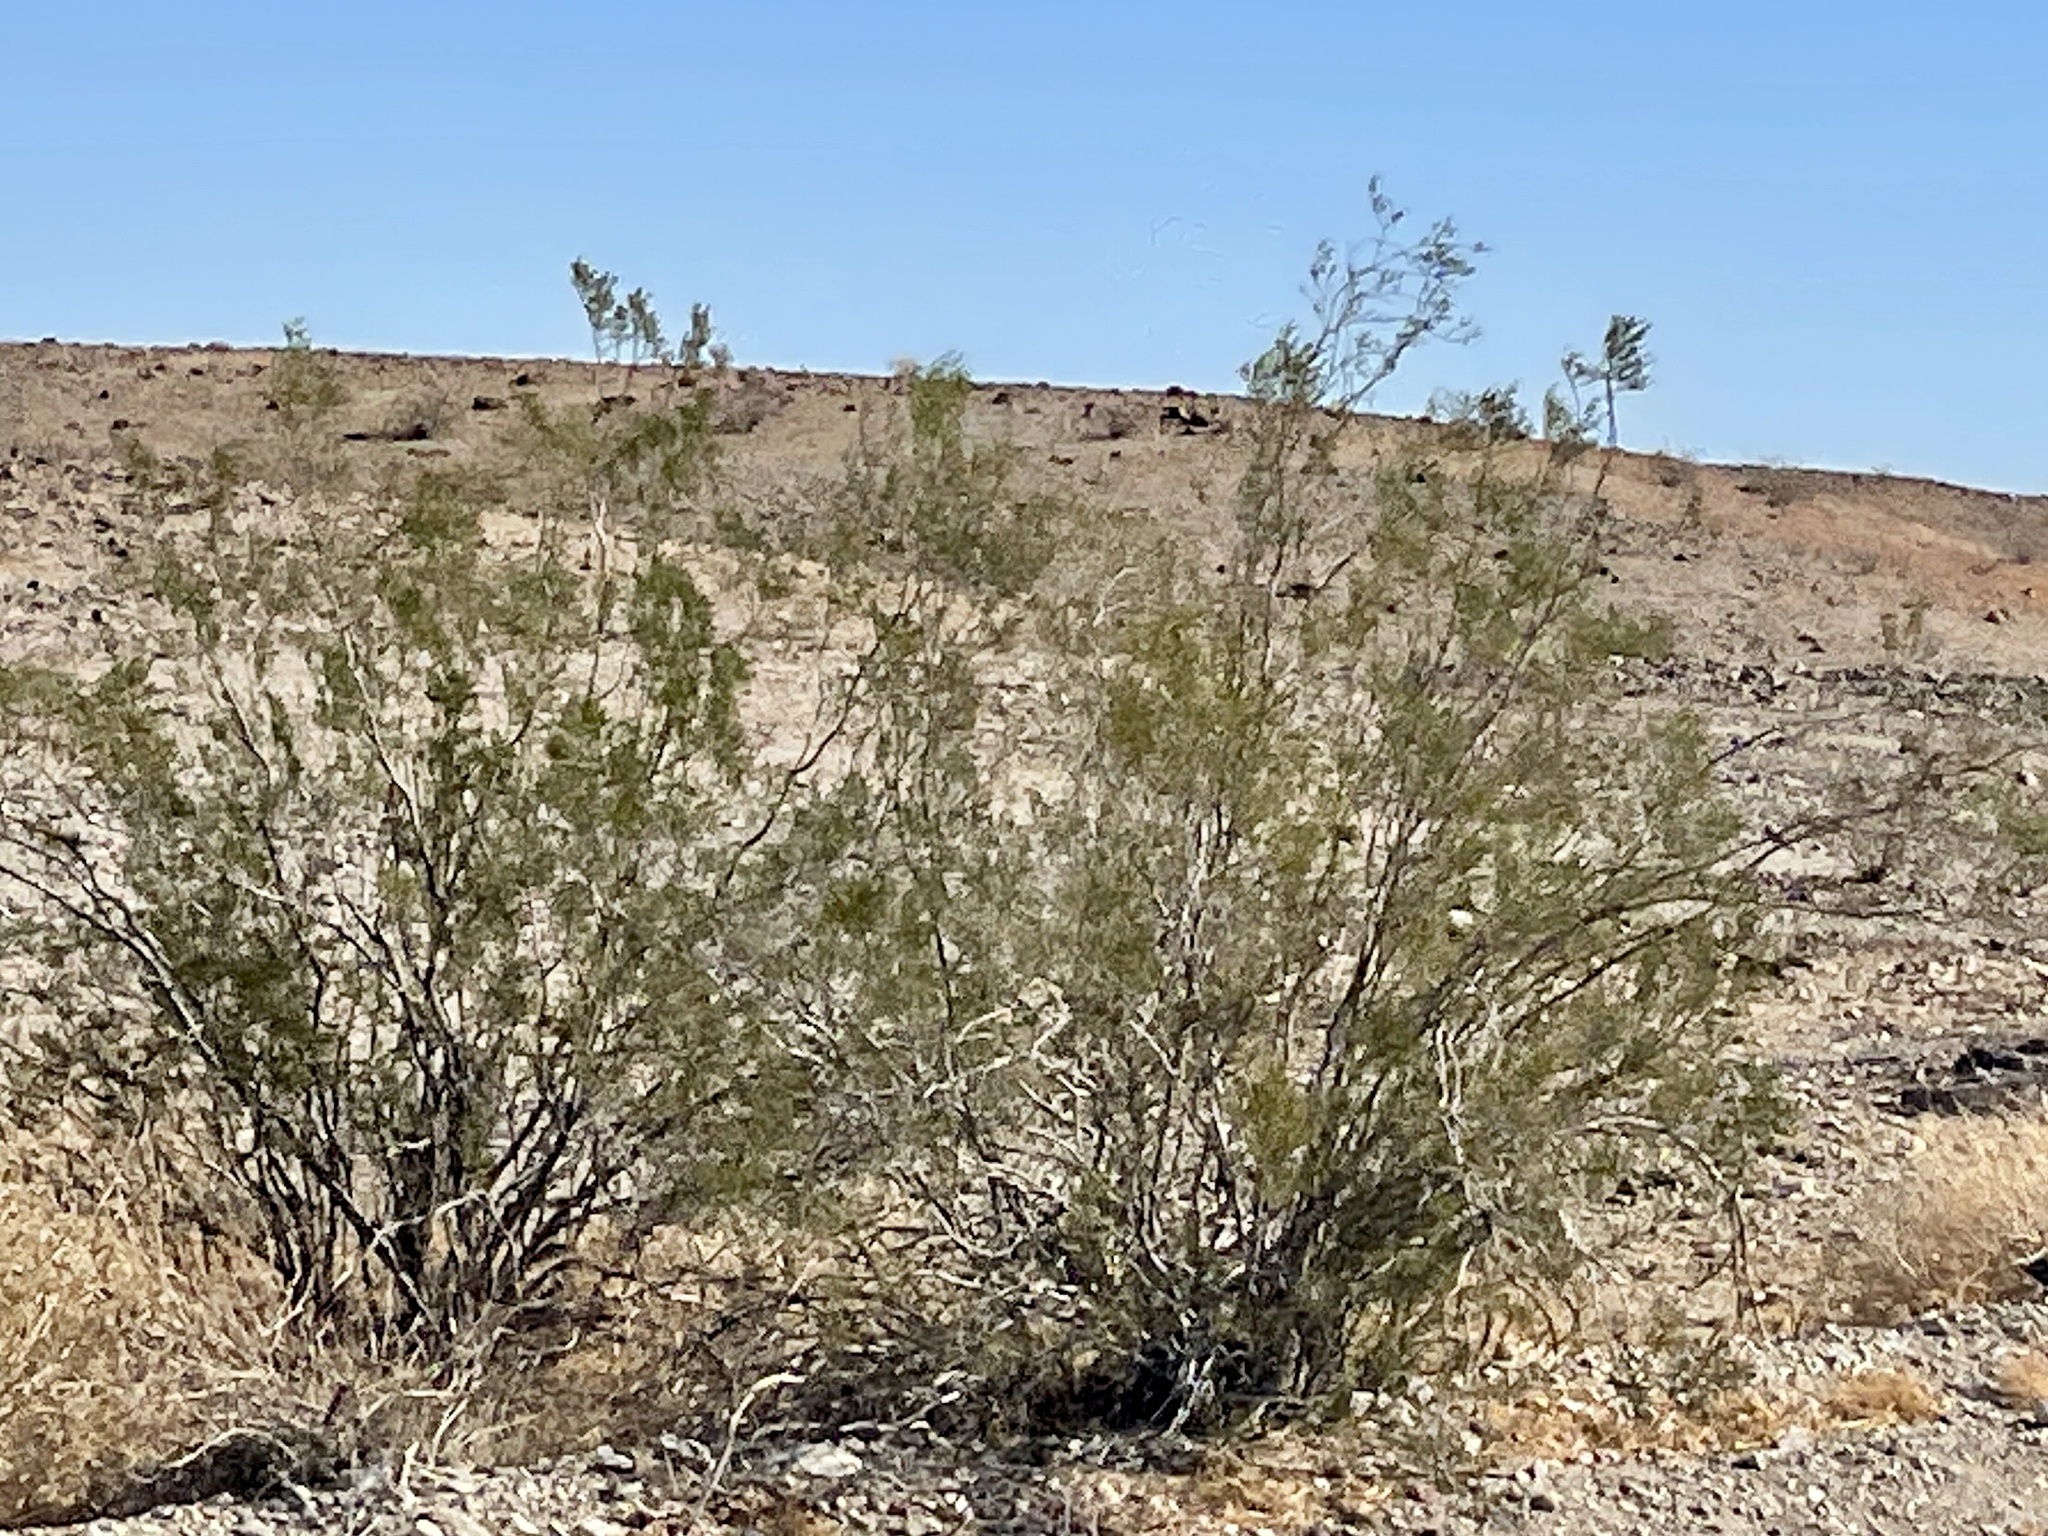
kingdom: Plantae
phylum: Tracheophyta
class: Magnoliopsida
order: Zygophyllales
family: Zygophyllaceae
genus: Larrea
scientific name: Larrea tridentata
